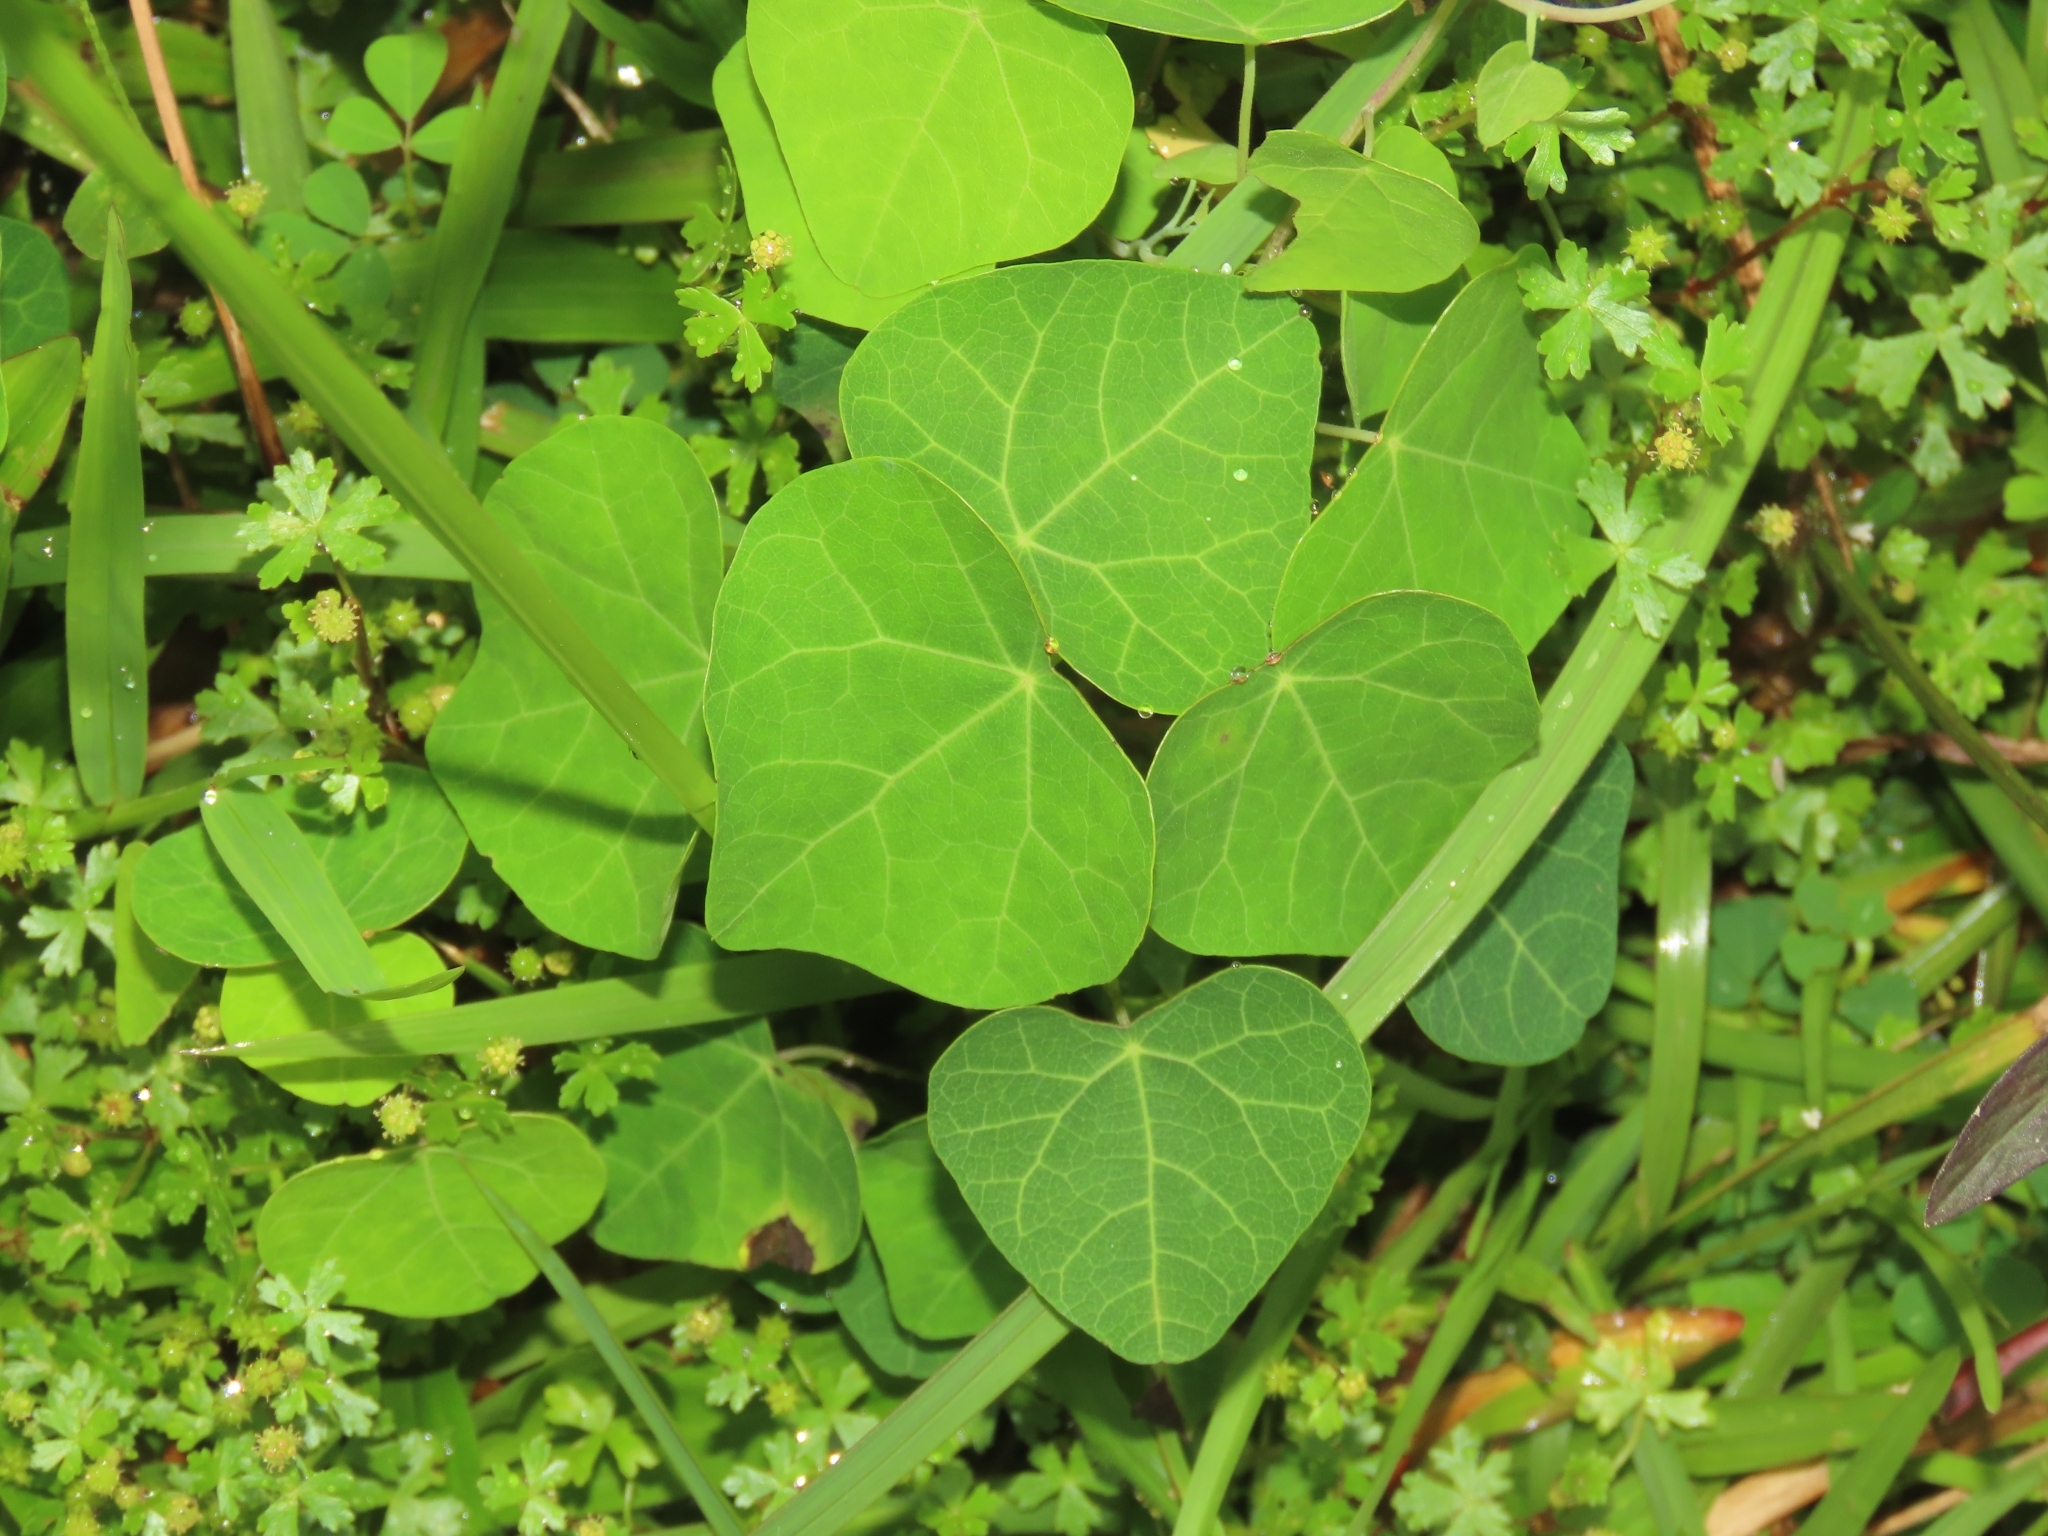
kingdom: Plantae
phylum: Tracheophyta
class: Magnoliopsida
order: Ranunculales
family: Menispermaceae
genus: Stephania
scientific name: Stephania tetrandra
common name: Stephania-root
